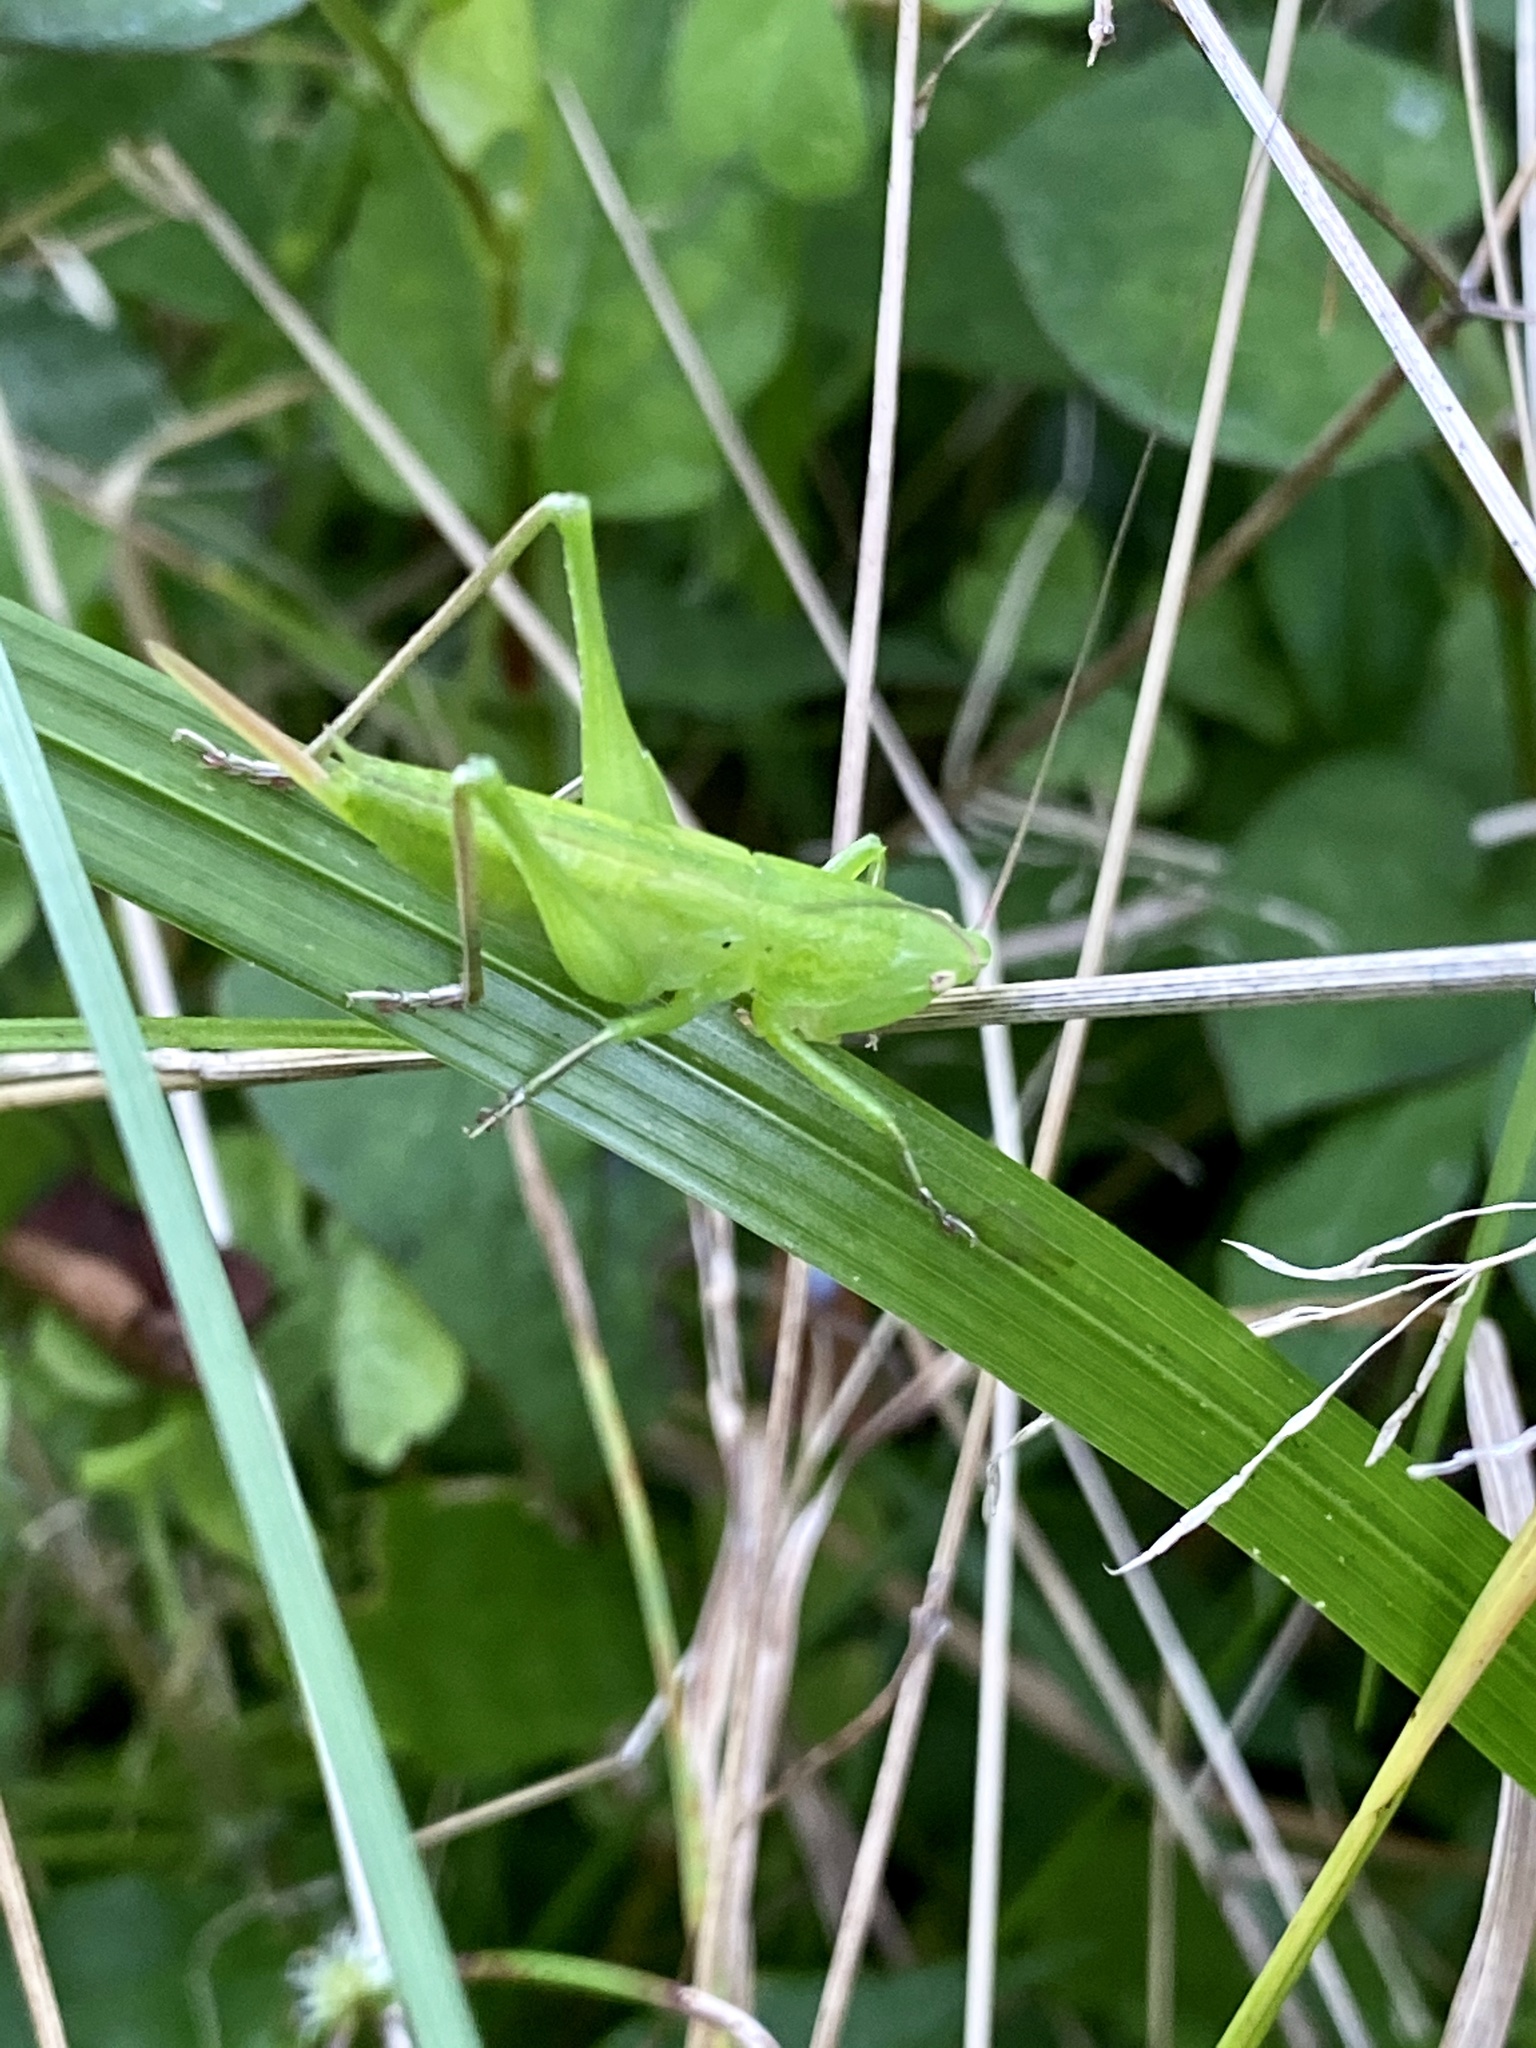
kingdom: Animalia
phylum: Arthropoda
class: Insecta
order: Orthoptera
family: Tettigoniidae
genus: Ruspolia
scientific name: Ruspolia lineosa
